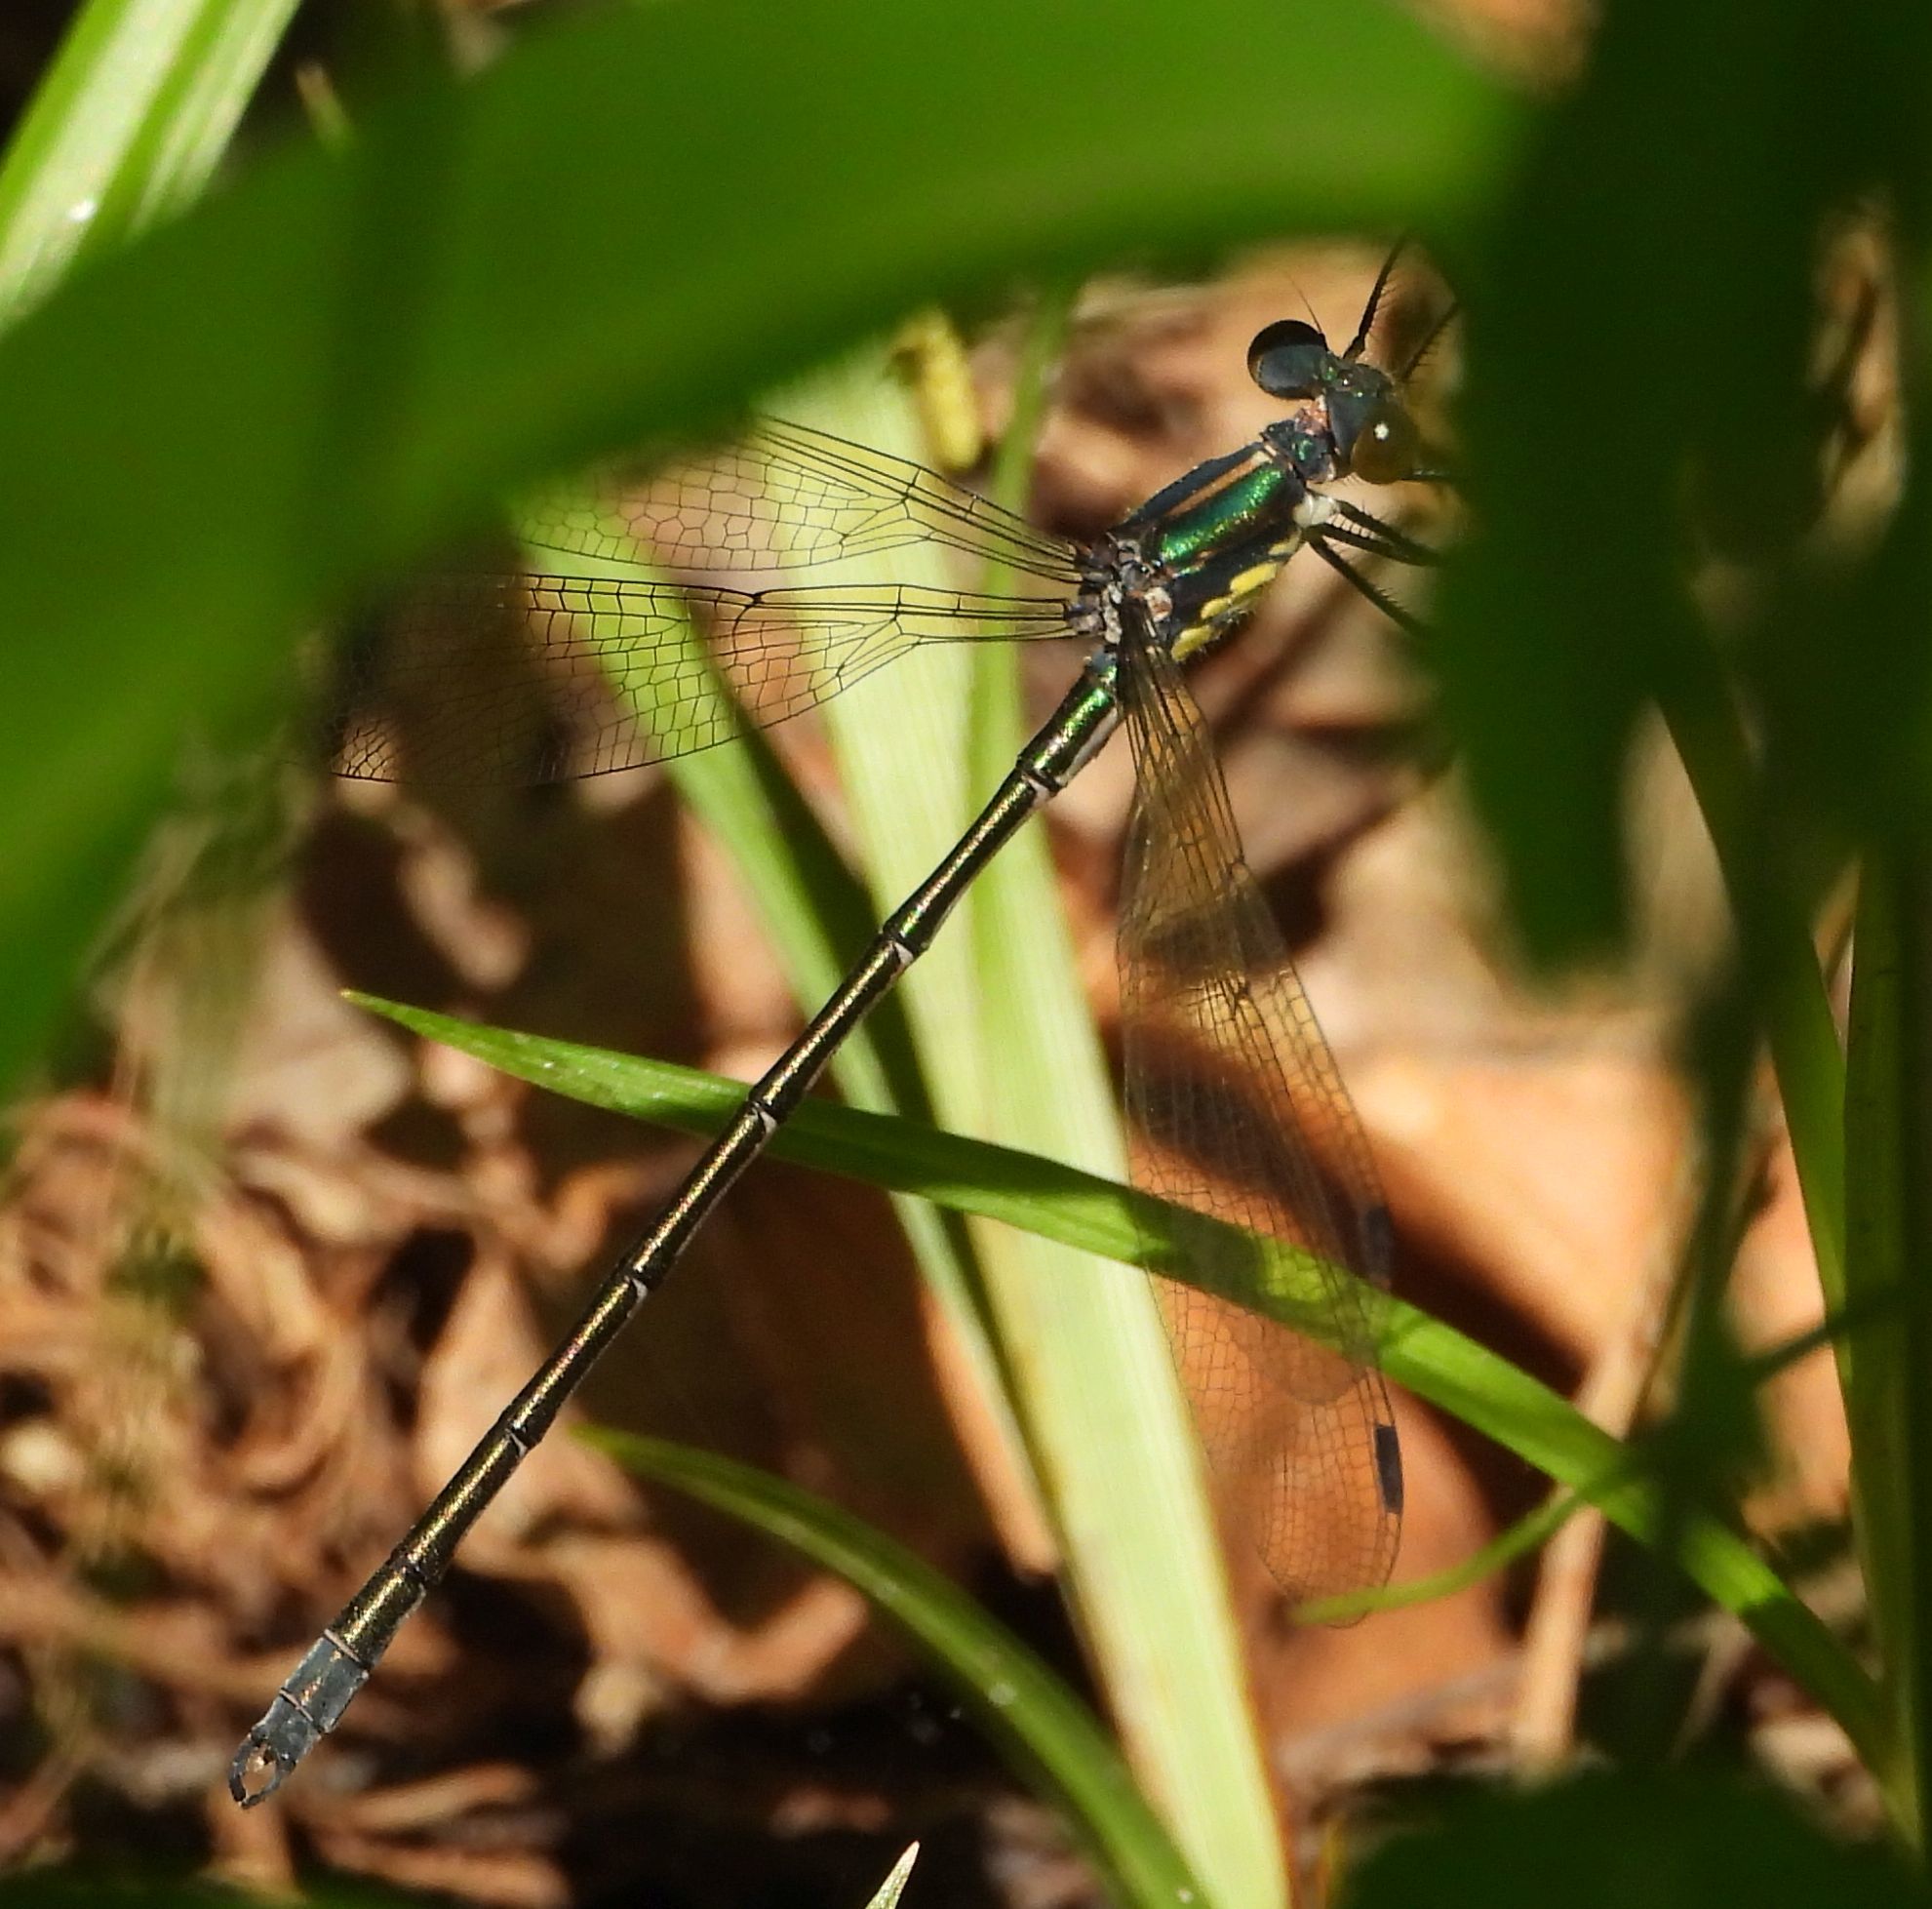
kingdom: Animalia
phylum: Arthropoda
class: Insecta
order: Odonata
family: Lestidae
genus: Lestes
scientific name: Lestes eurinus
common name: Amber-winged spreadwing
